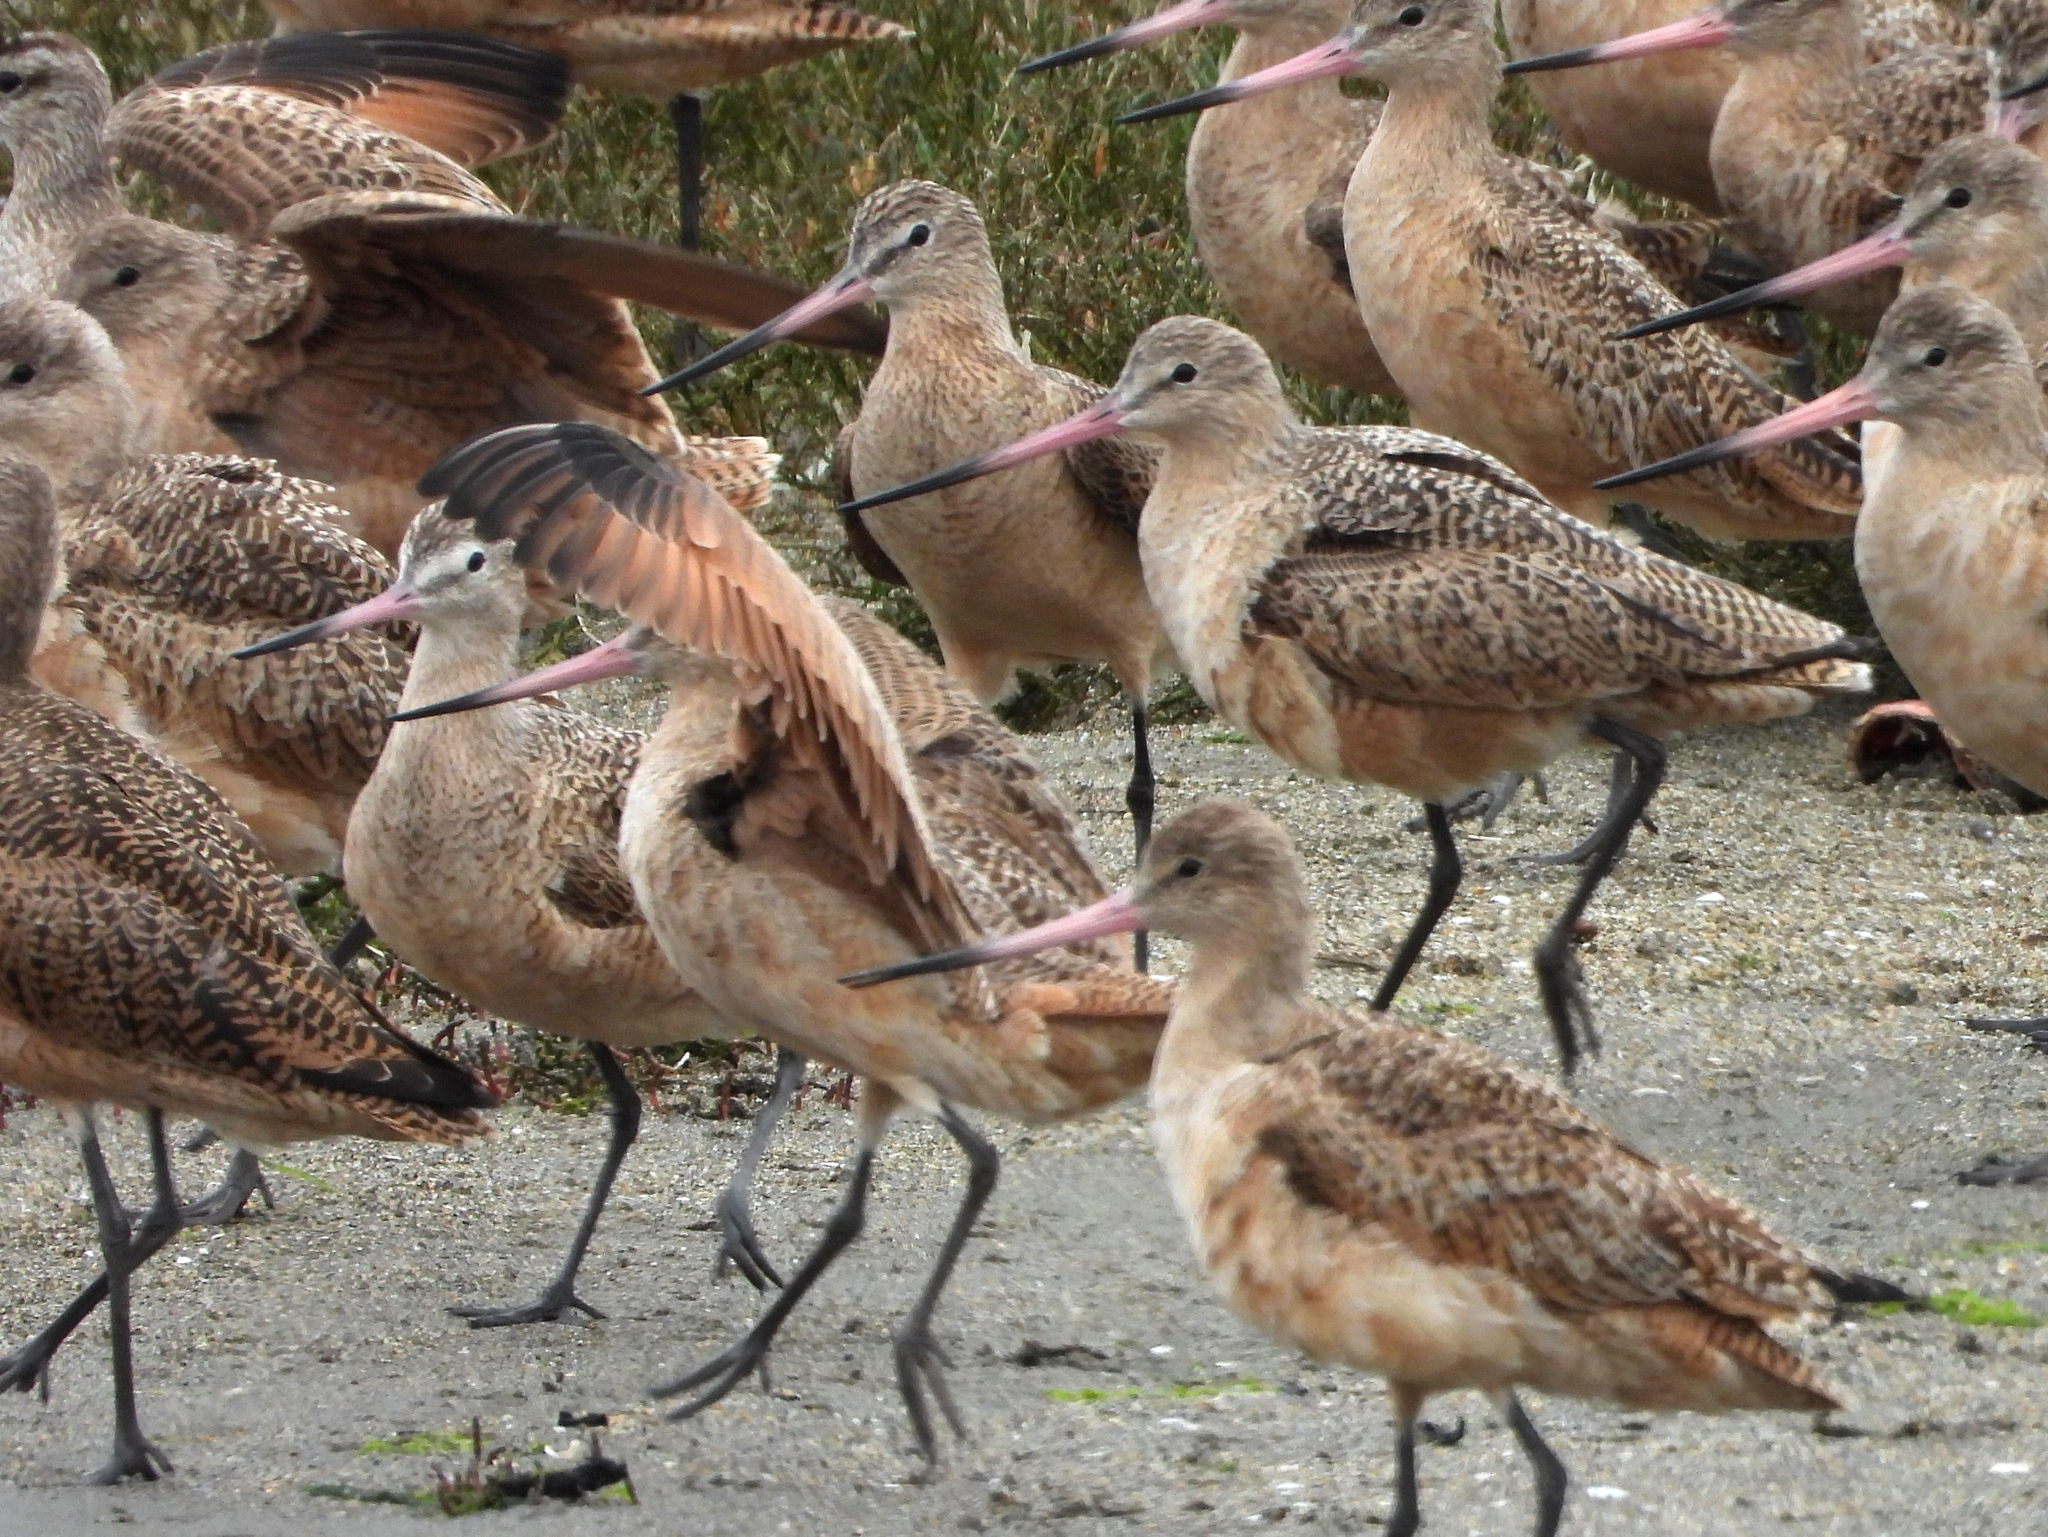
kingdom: Animalia
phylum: Chordata
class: Aves
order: Charadriiformes
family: Scolopacidae
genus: Limosa
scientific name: Limosa fedoa
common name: Marbled godwit
